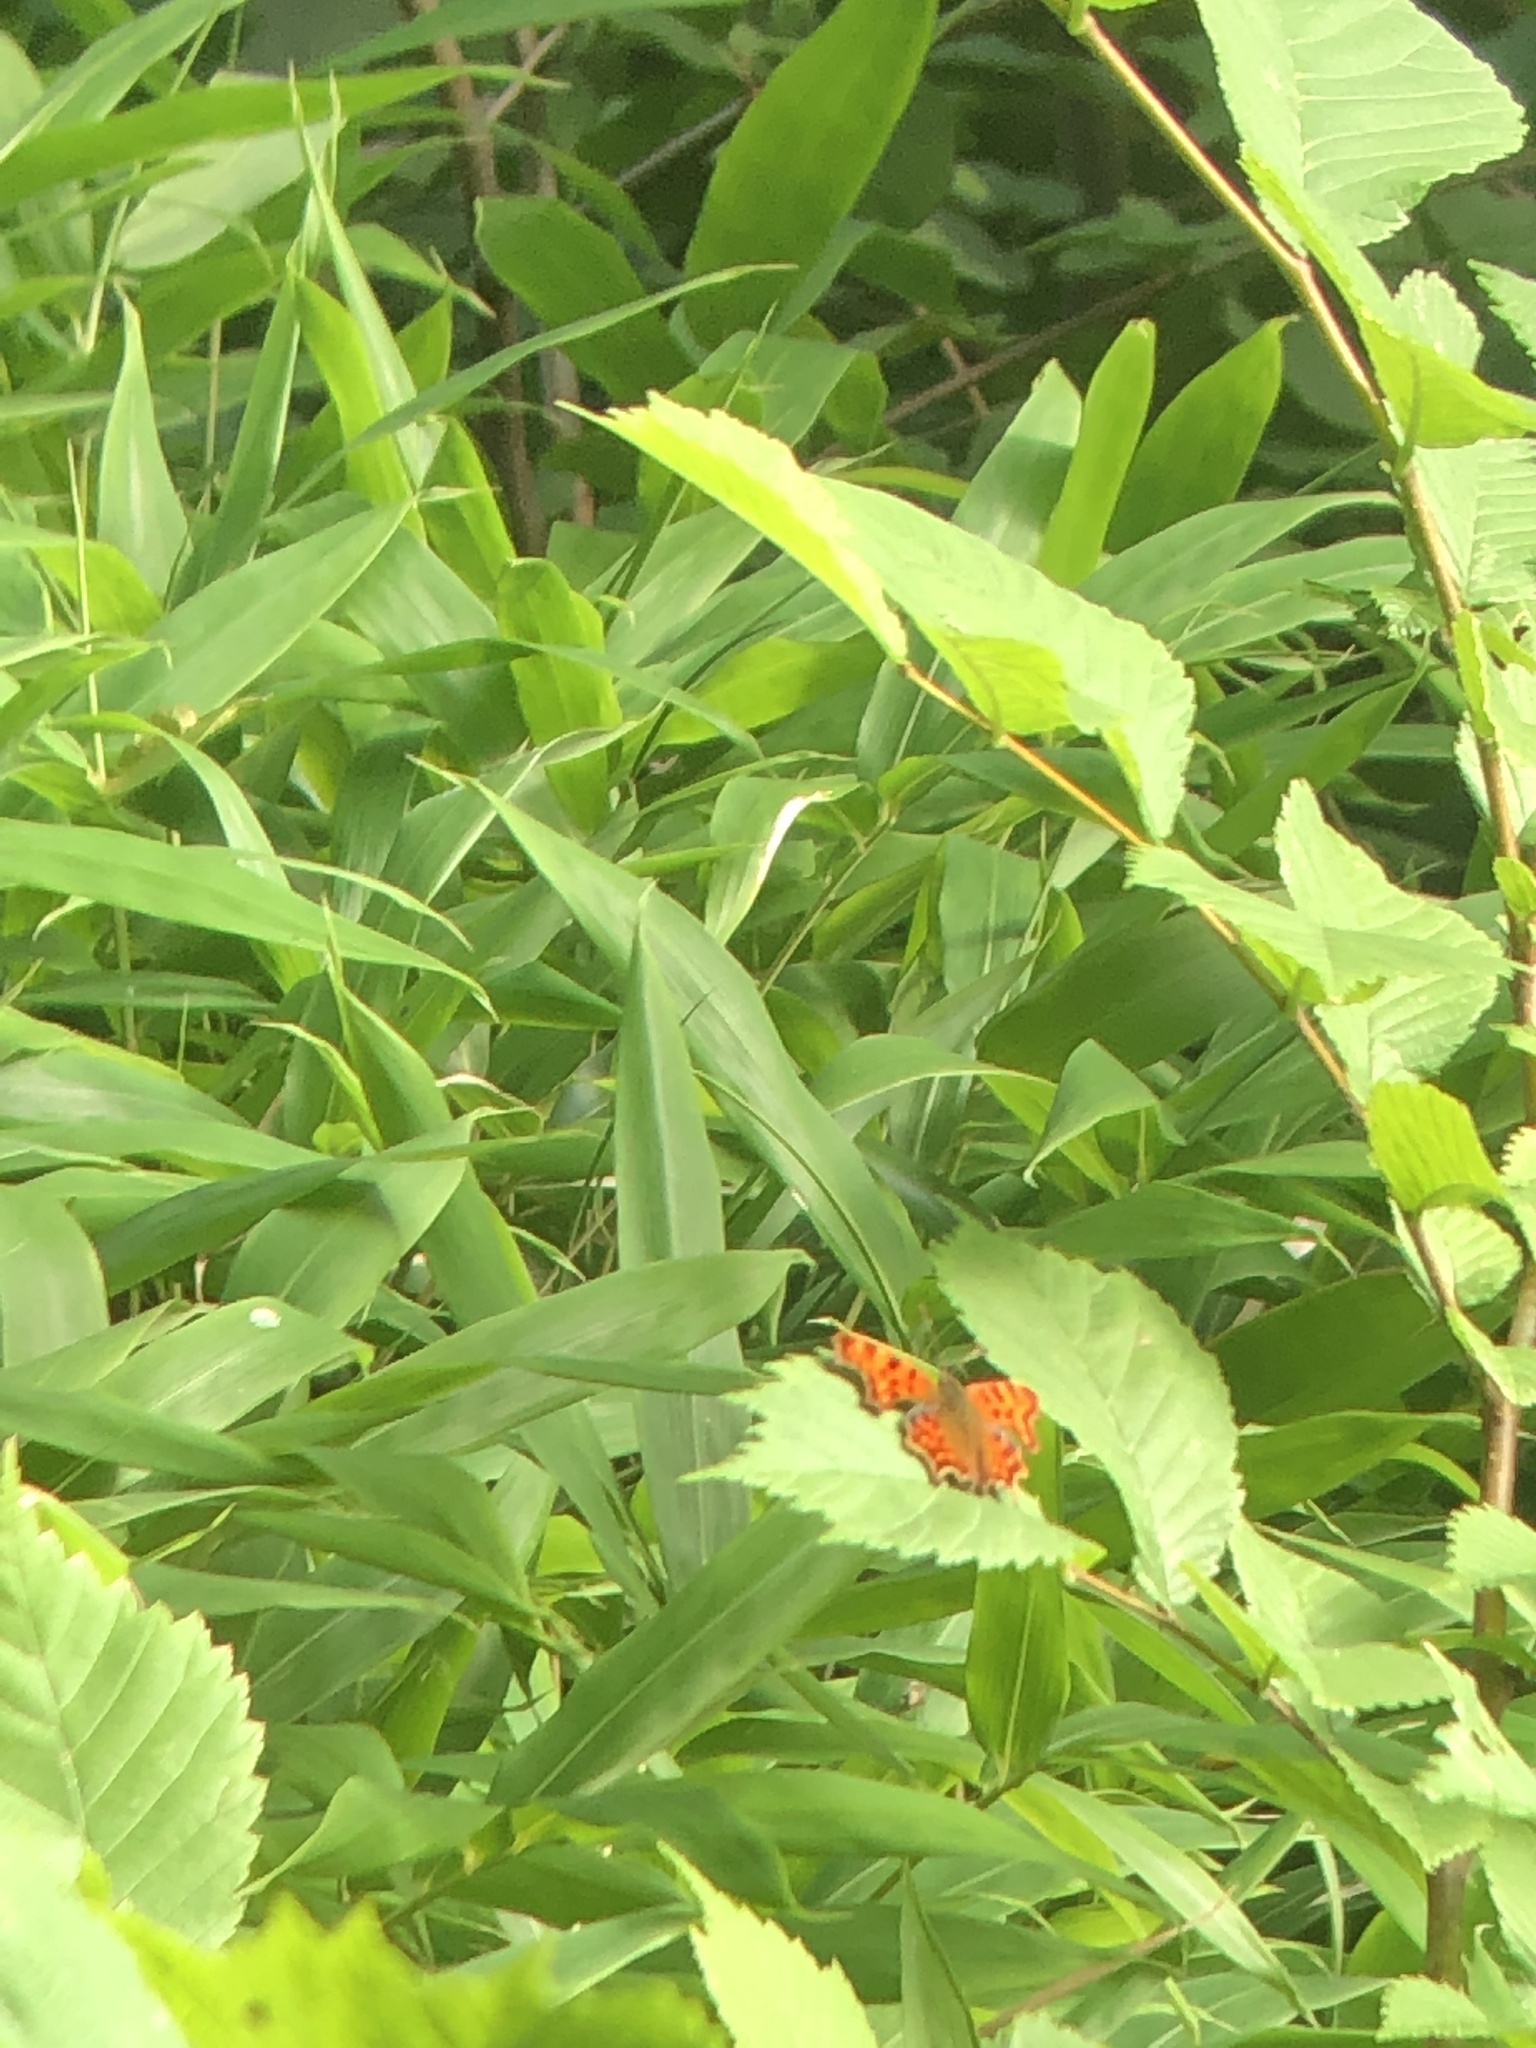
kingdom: Animalia
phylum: Arthropoda
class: Insecta
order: Lepidoptera
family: Nymphalidae
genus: Polygonia
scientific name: Polygonia c-album
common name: Comma
